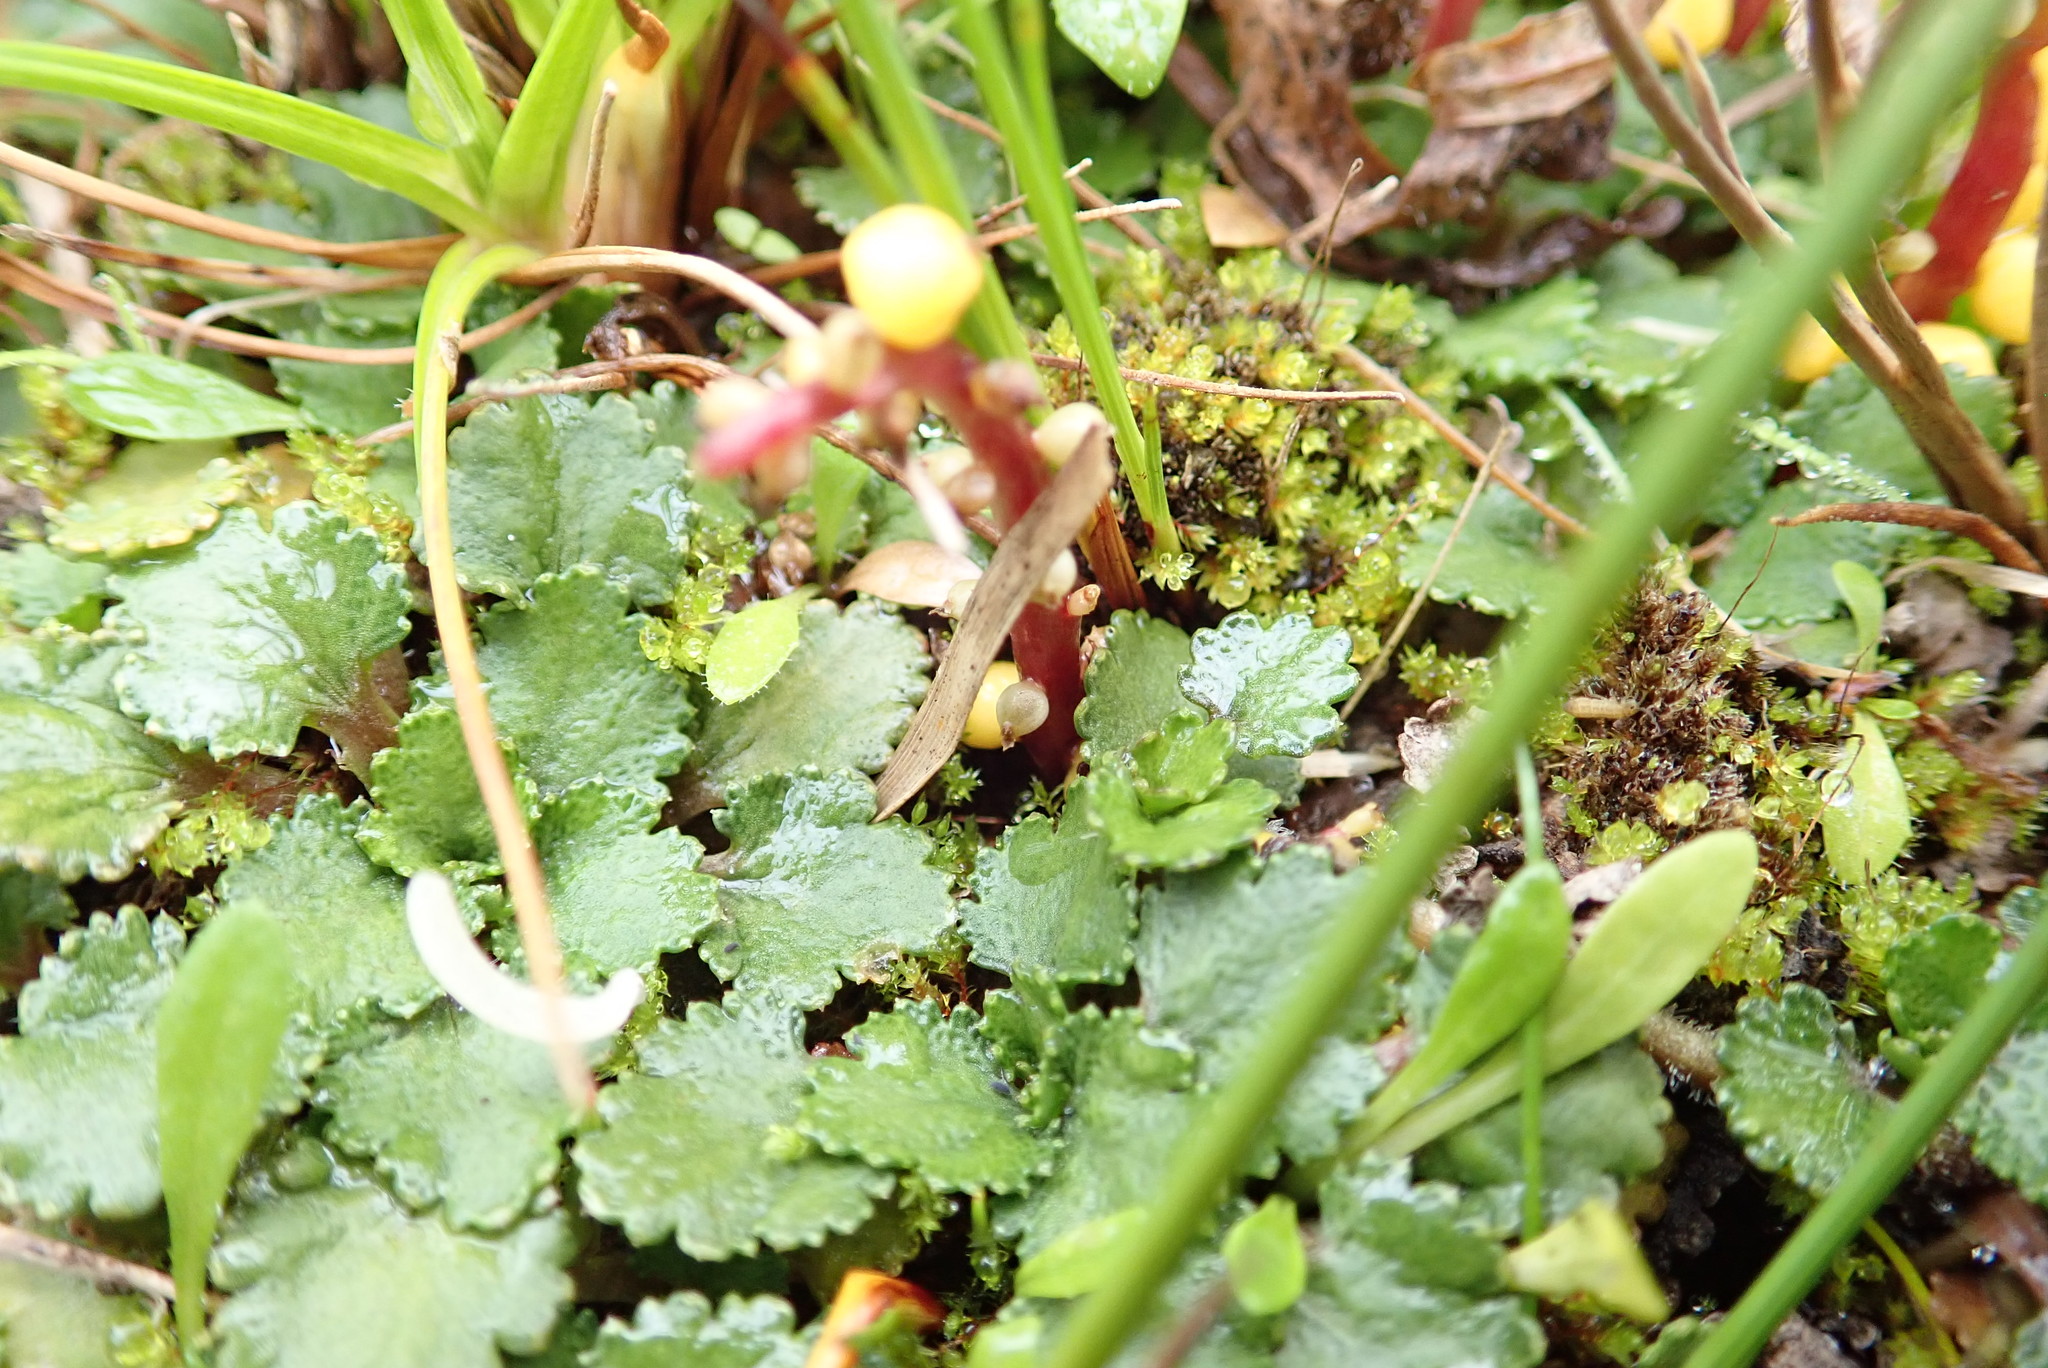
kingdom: Plantae
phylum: Tracheophyta
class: Magnoliopsida
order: Gunnerales
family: Gunneraceae
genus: Gunnera
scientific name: Gunnera dentata
